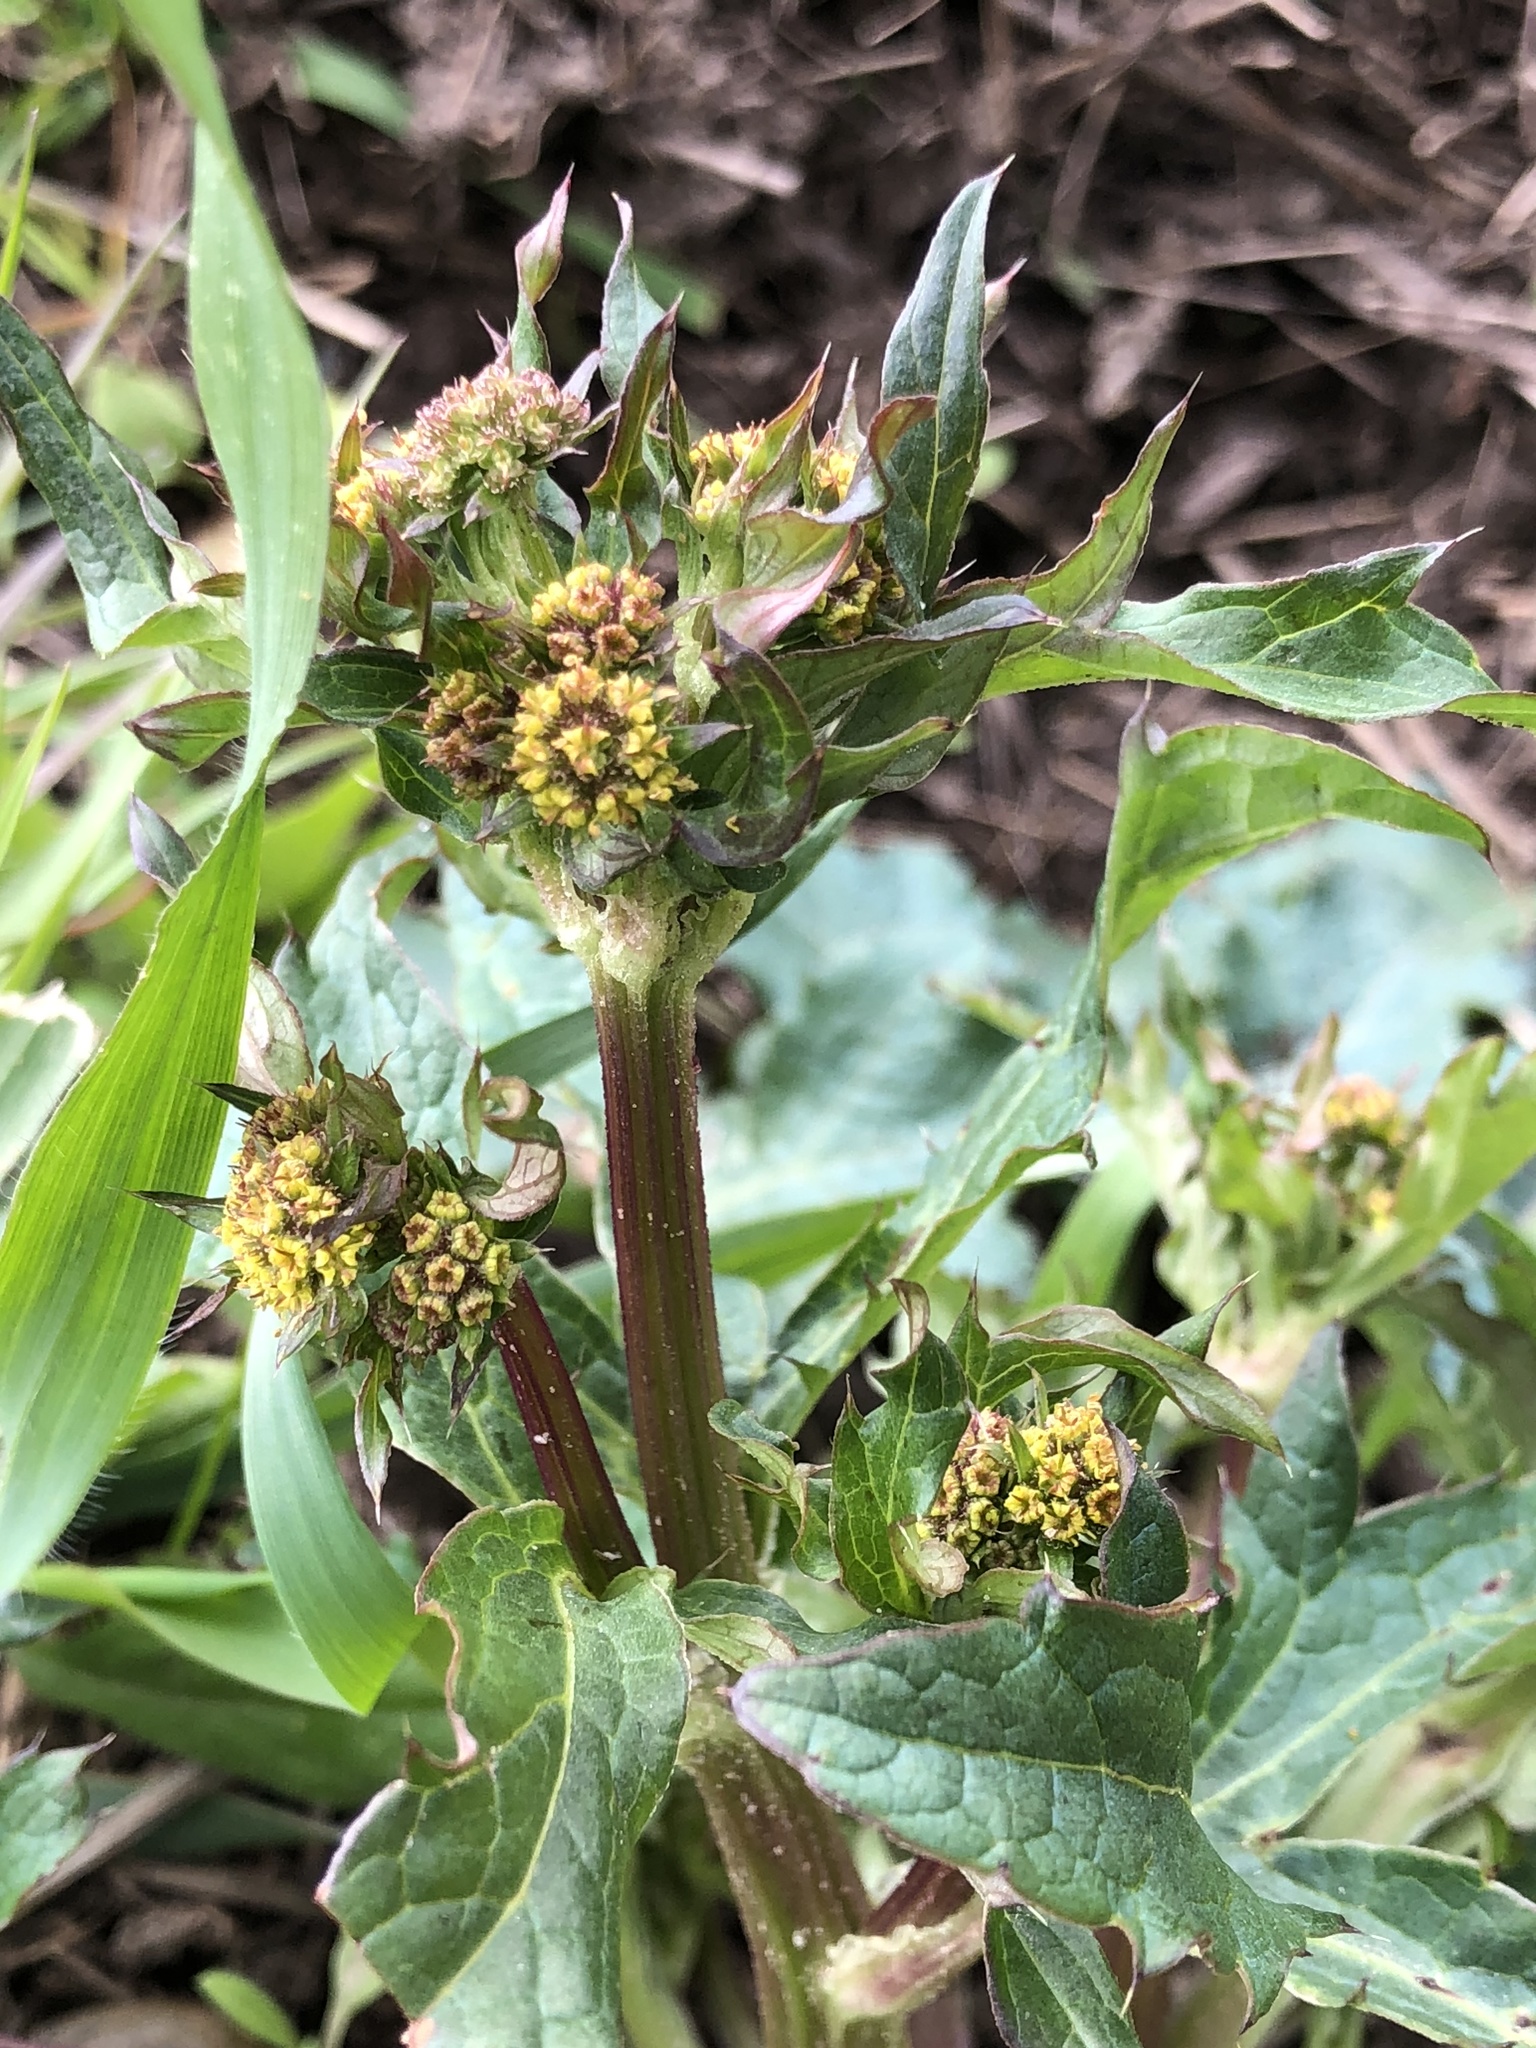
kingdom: Plantae
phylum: Tracheophyta
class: Magnoliopsida
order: Apiales
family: Apiaceae
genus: Sanicula
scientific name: Sanicula crassicaulis
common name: Western snakeroot
